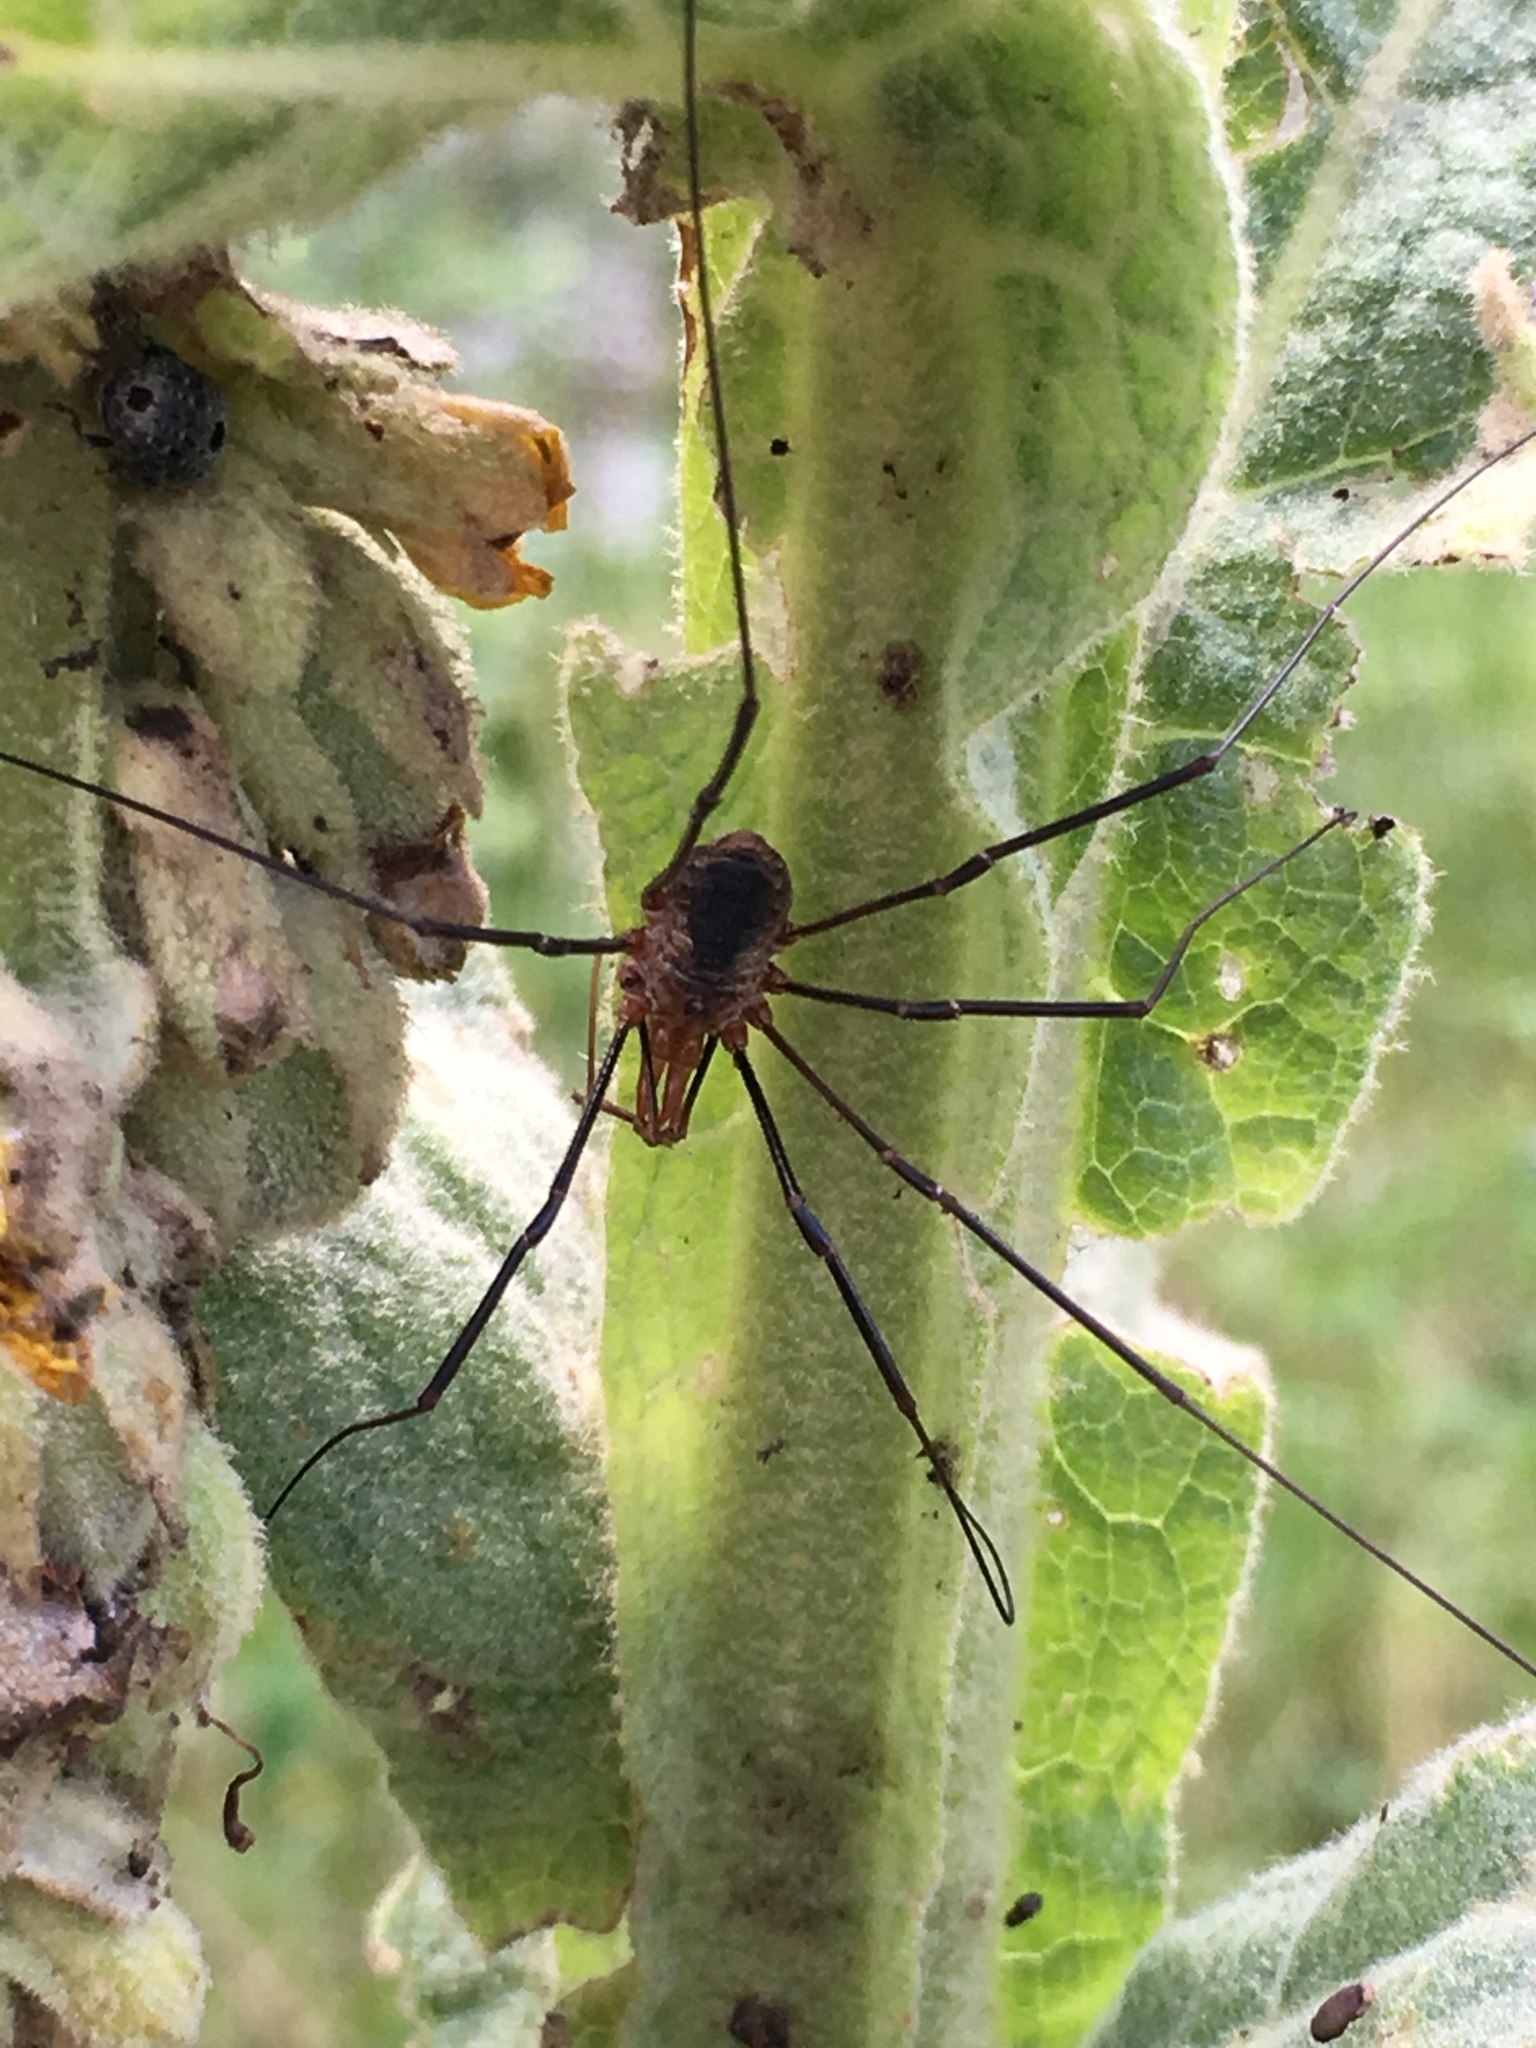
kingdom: Animalia
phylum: Arthropoda
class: Arachnida
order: Opiliones
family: Phalangiidae
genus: Phalangium
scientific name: Phalangium opilio
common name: Daddy longleg
